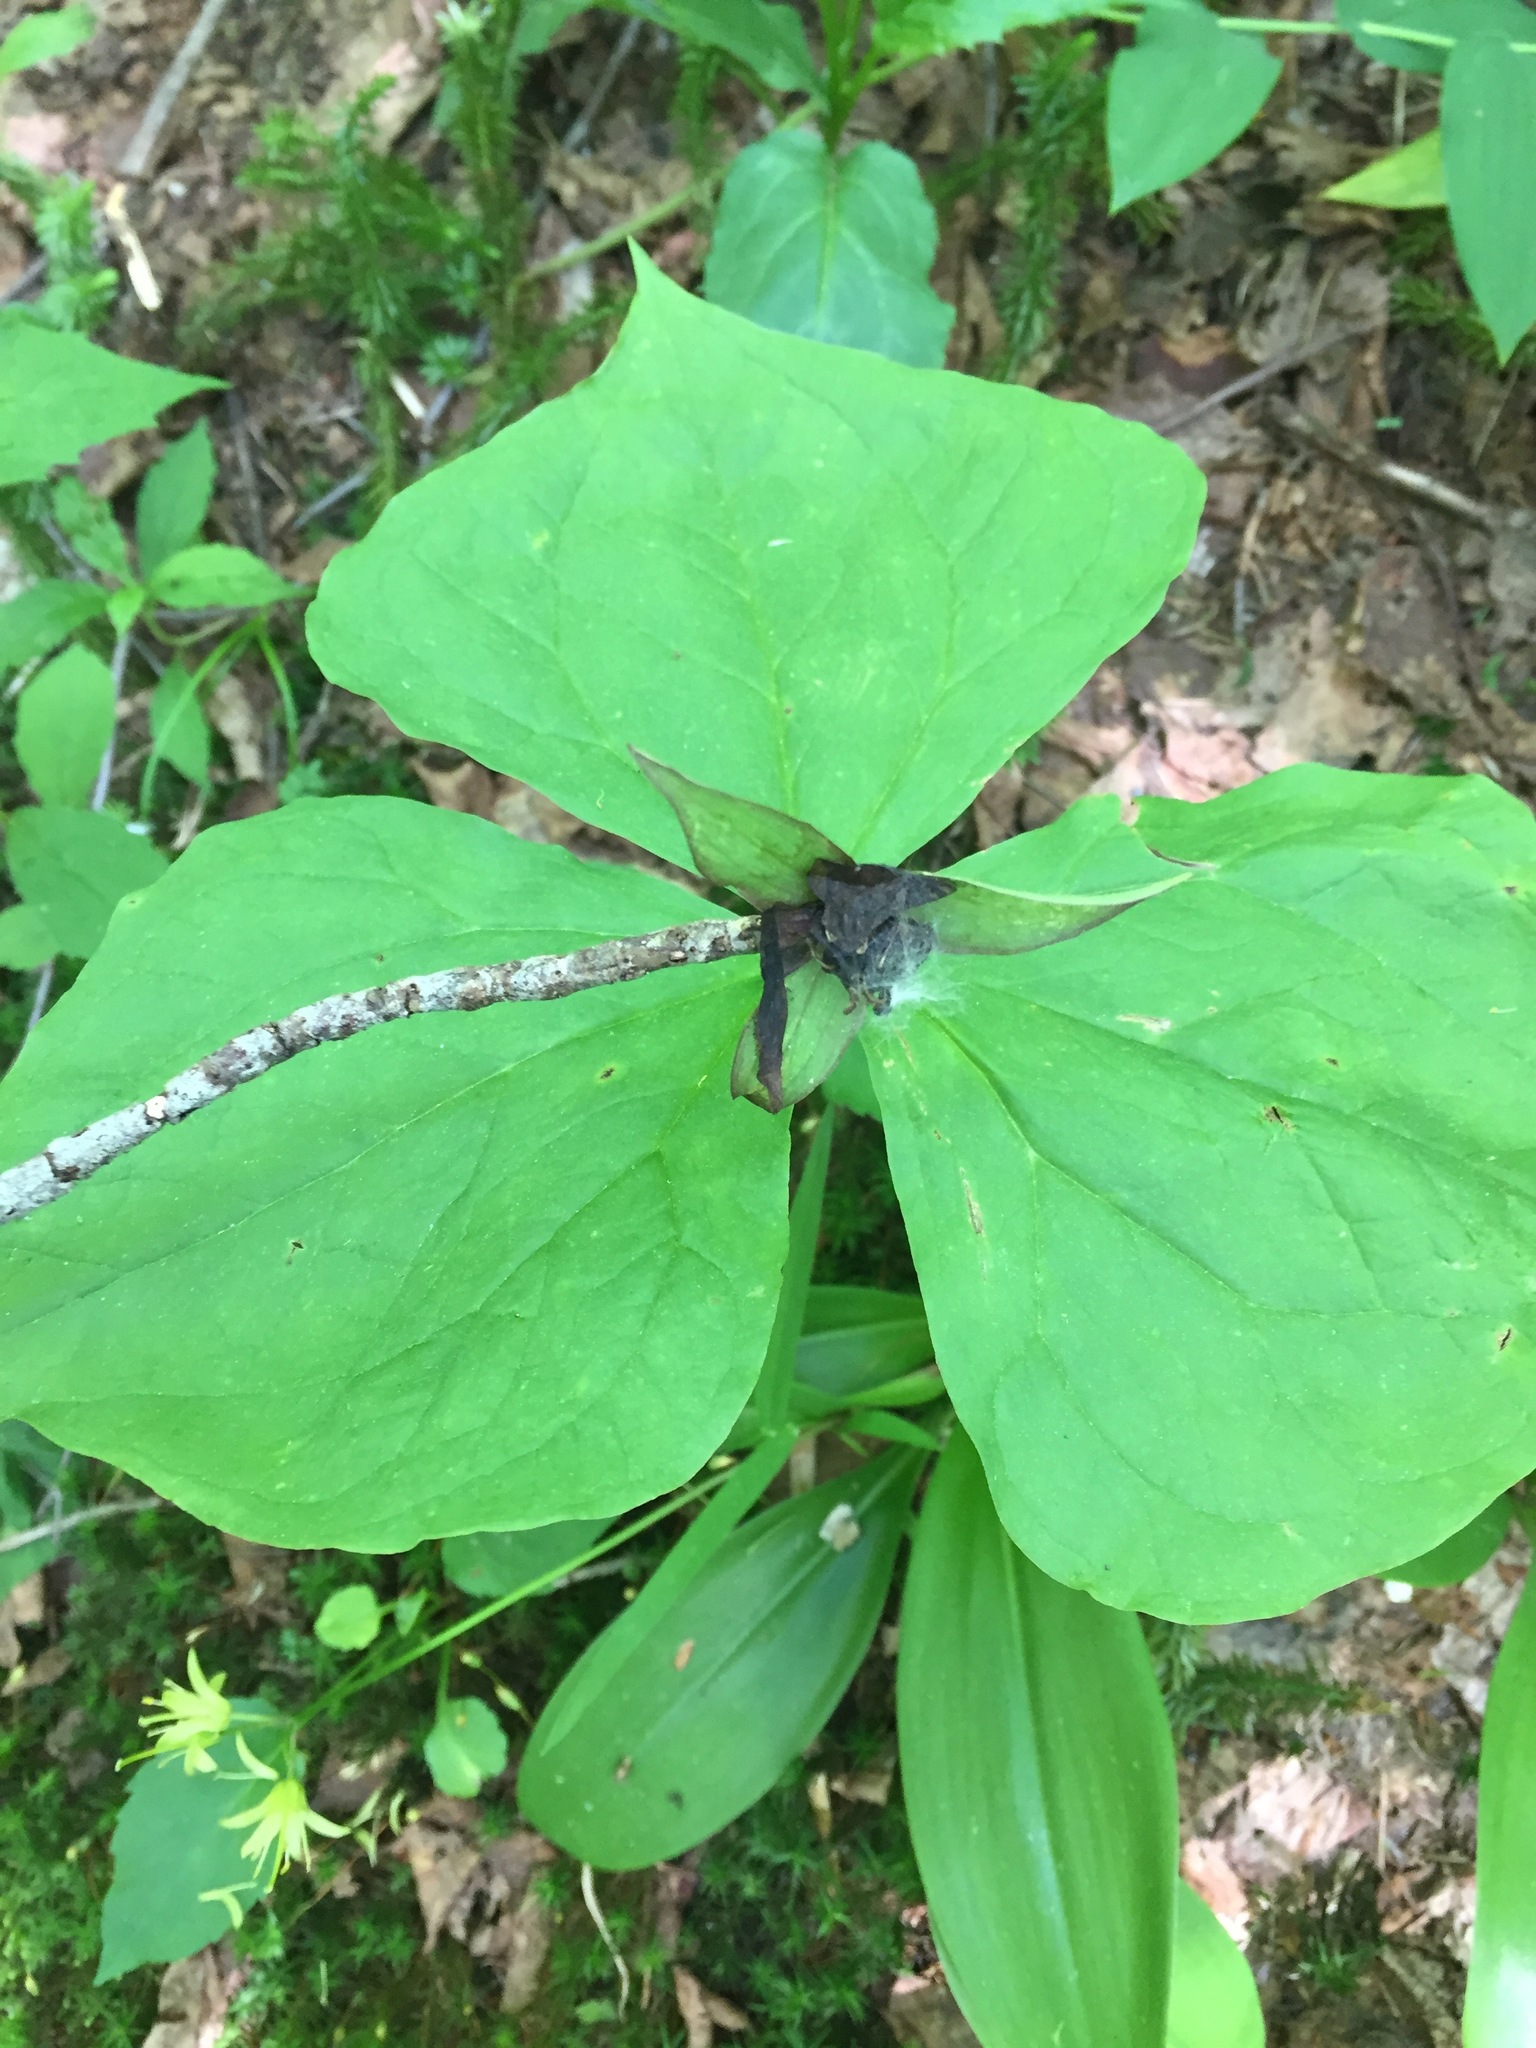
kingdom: Plantae
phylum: Tracheophyta
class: Liliopsida
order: Liliales
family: Melanthiaceae
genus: Trillium
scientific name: Trillium erectum
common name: Purple trillium
